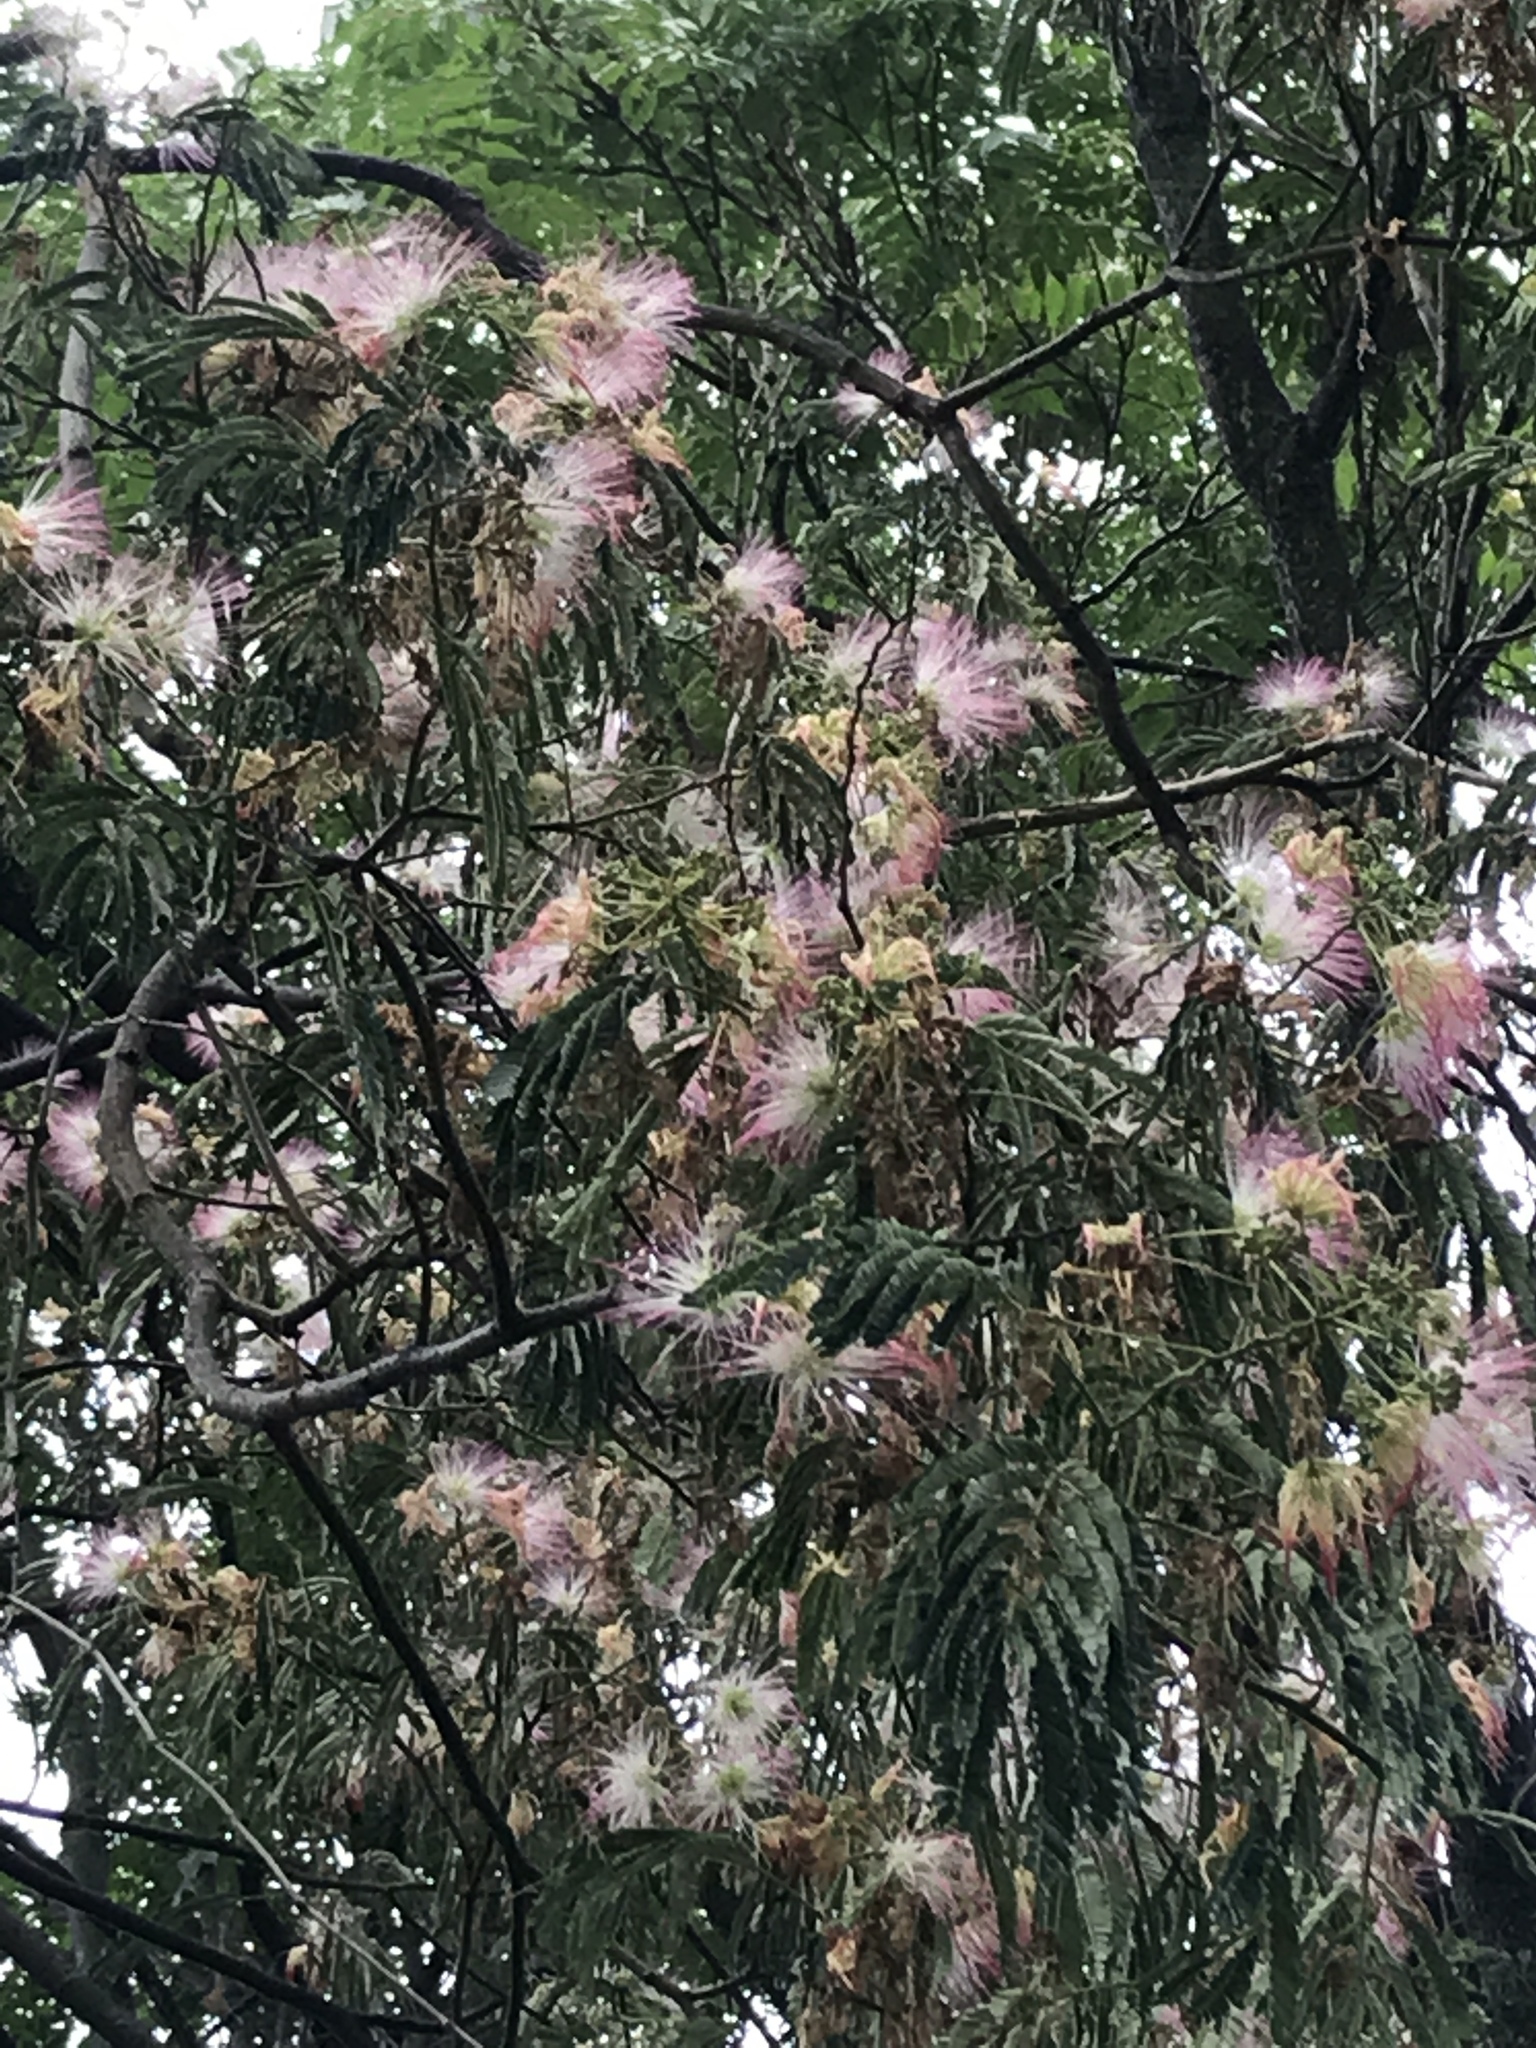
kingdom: Plantae
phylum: Tracheophyta
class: Magnoliopsida
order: Fabales
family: Fabaceae
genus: Albizia
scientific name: Albizia julibrissin
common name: Silktree
